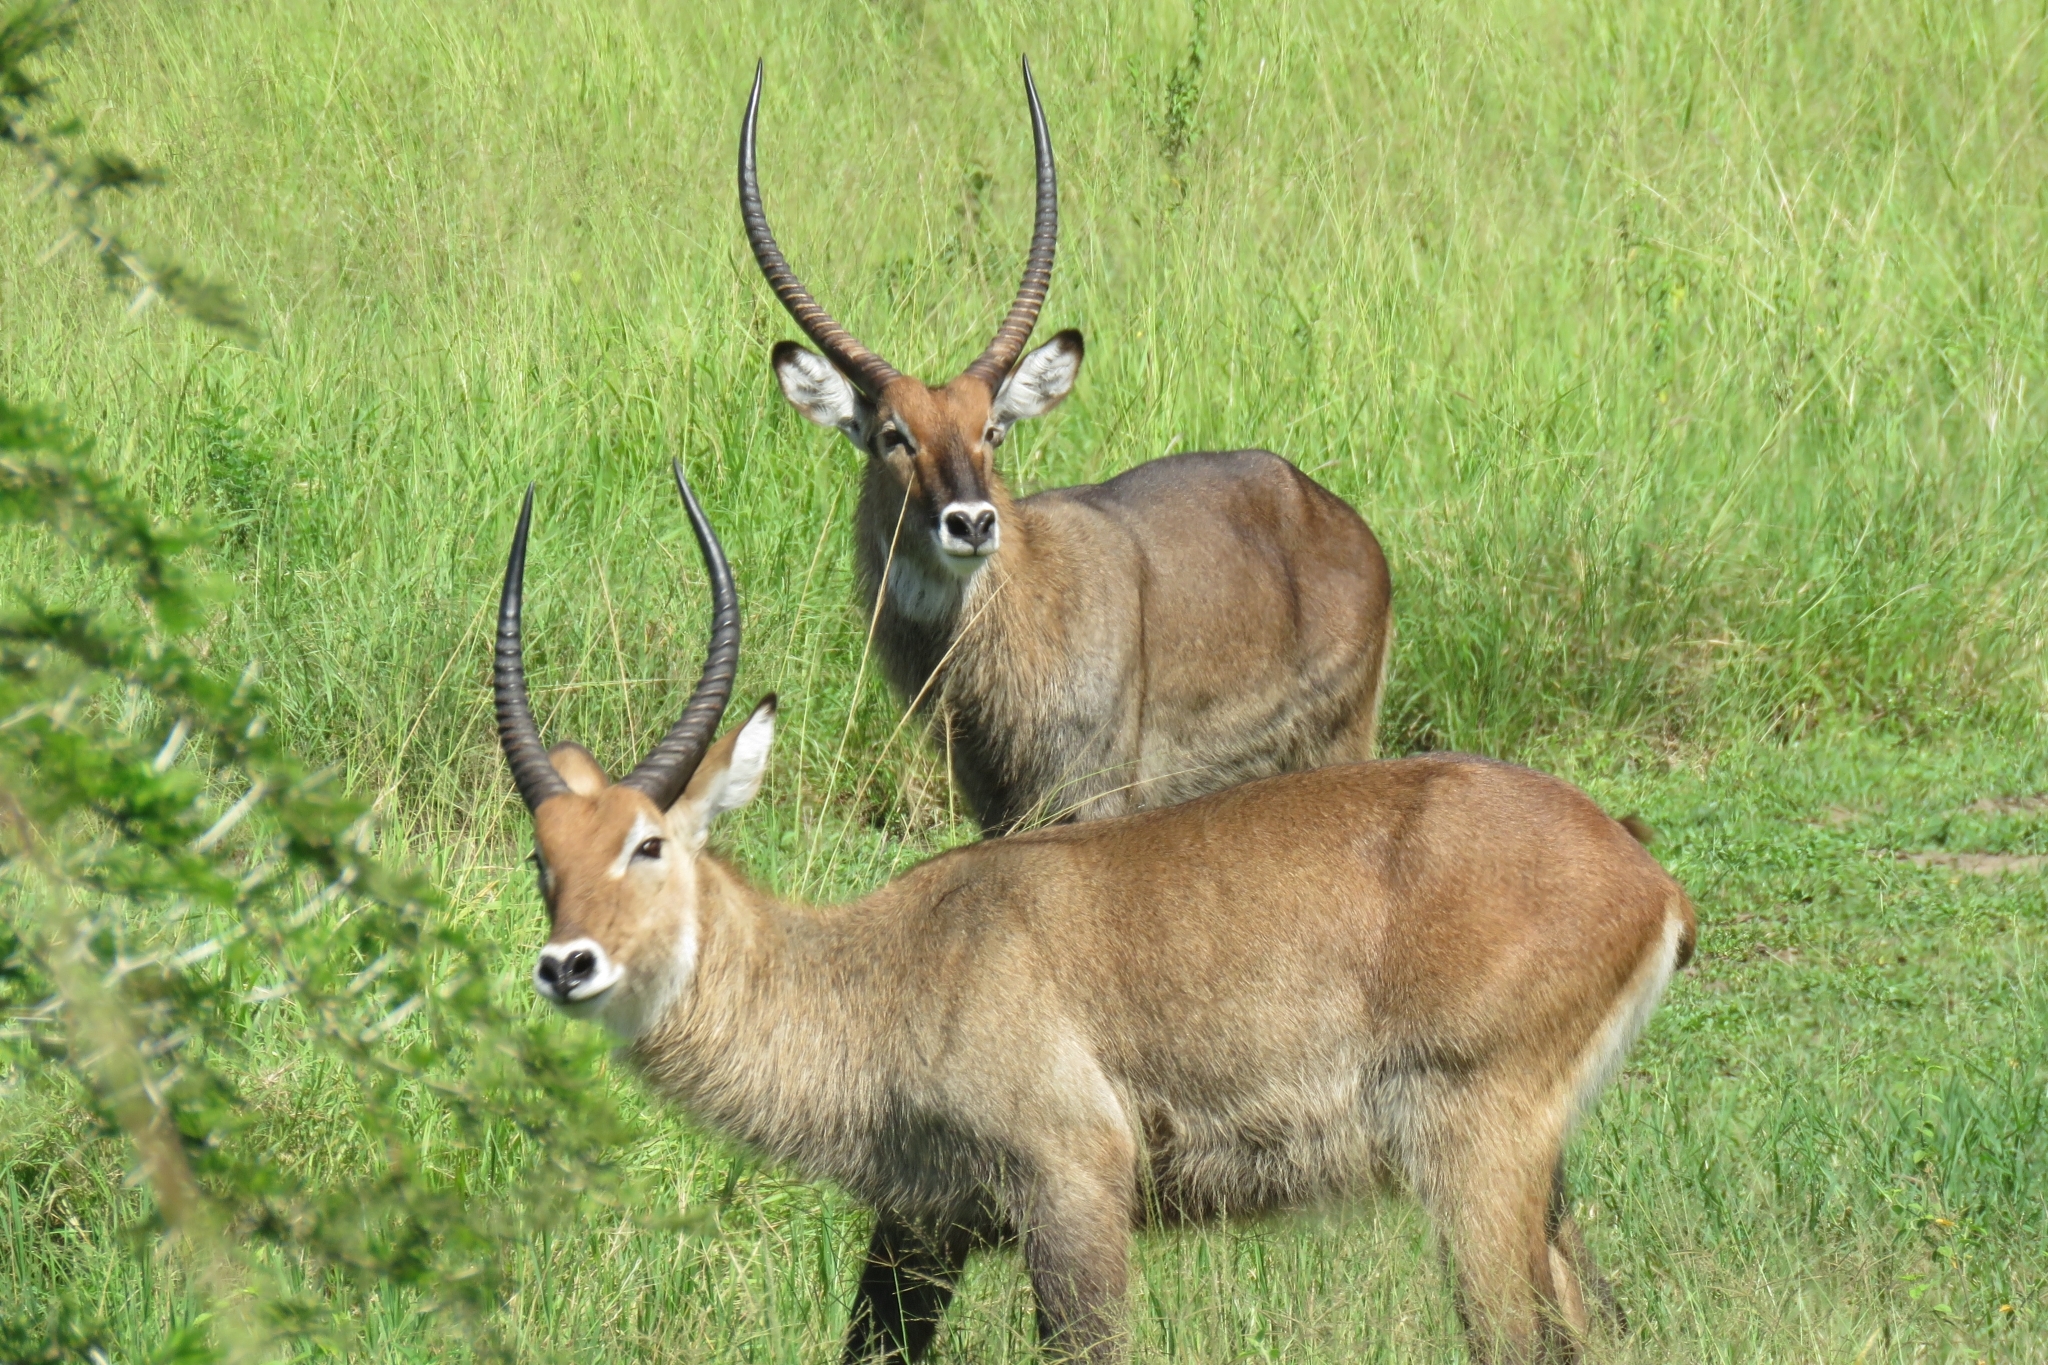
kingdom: Animalia
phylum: Chordata
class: Mammalia
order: Artiodactyla
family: Bovidae
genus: Kobus
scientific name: Kobus ellipsiprymnus
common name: Waterbuck
